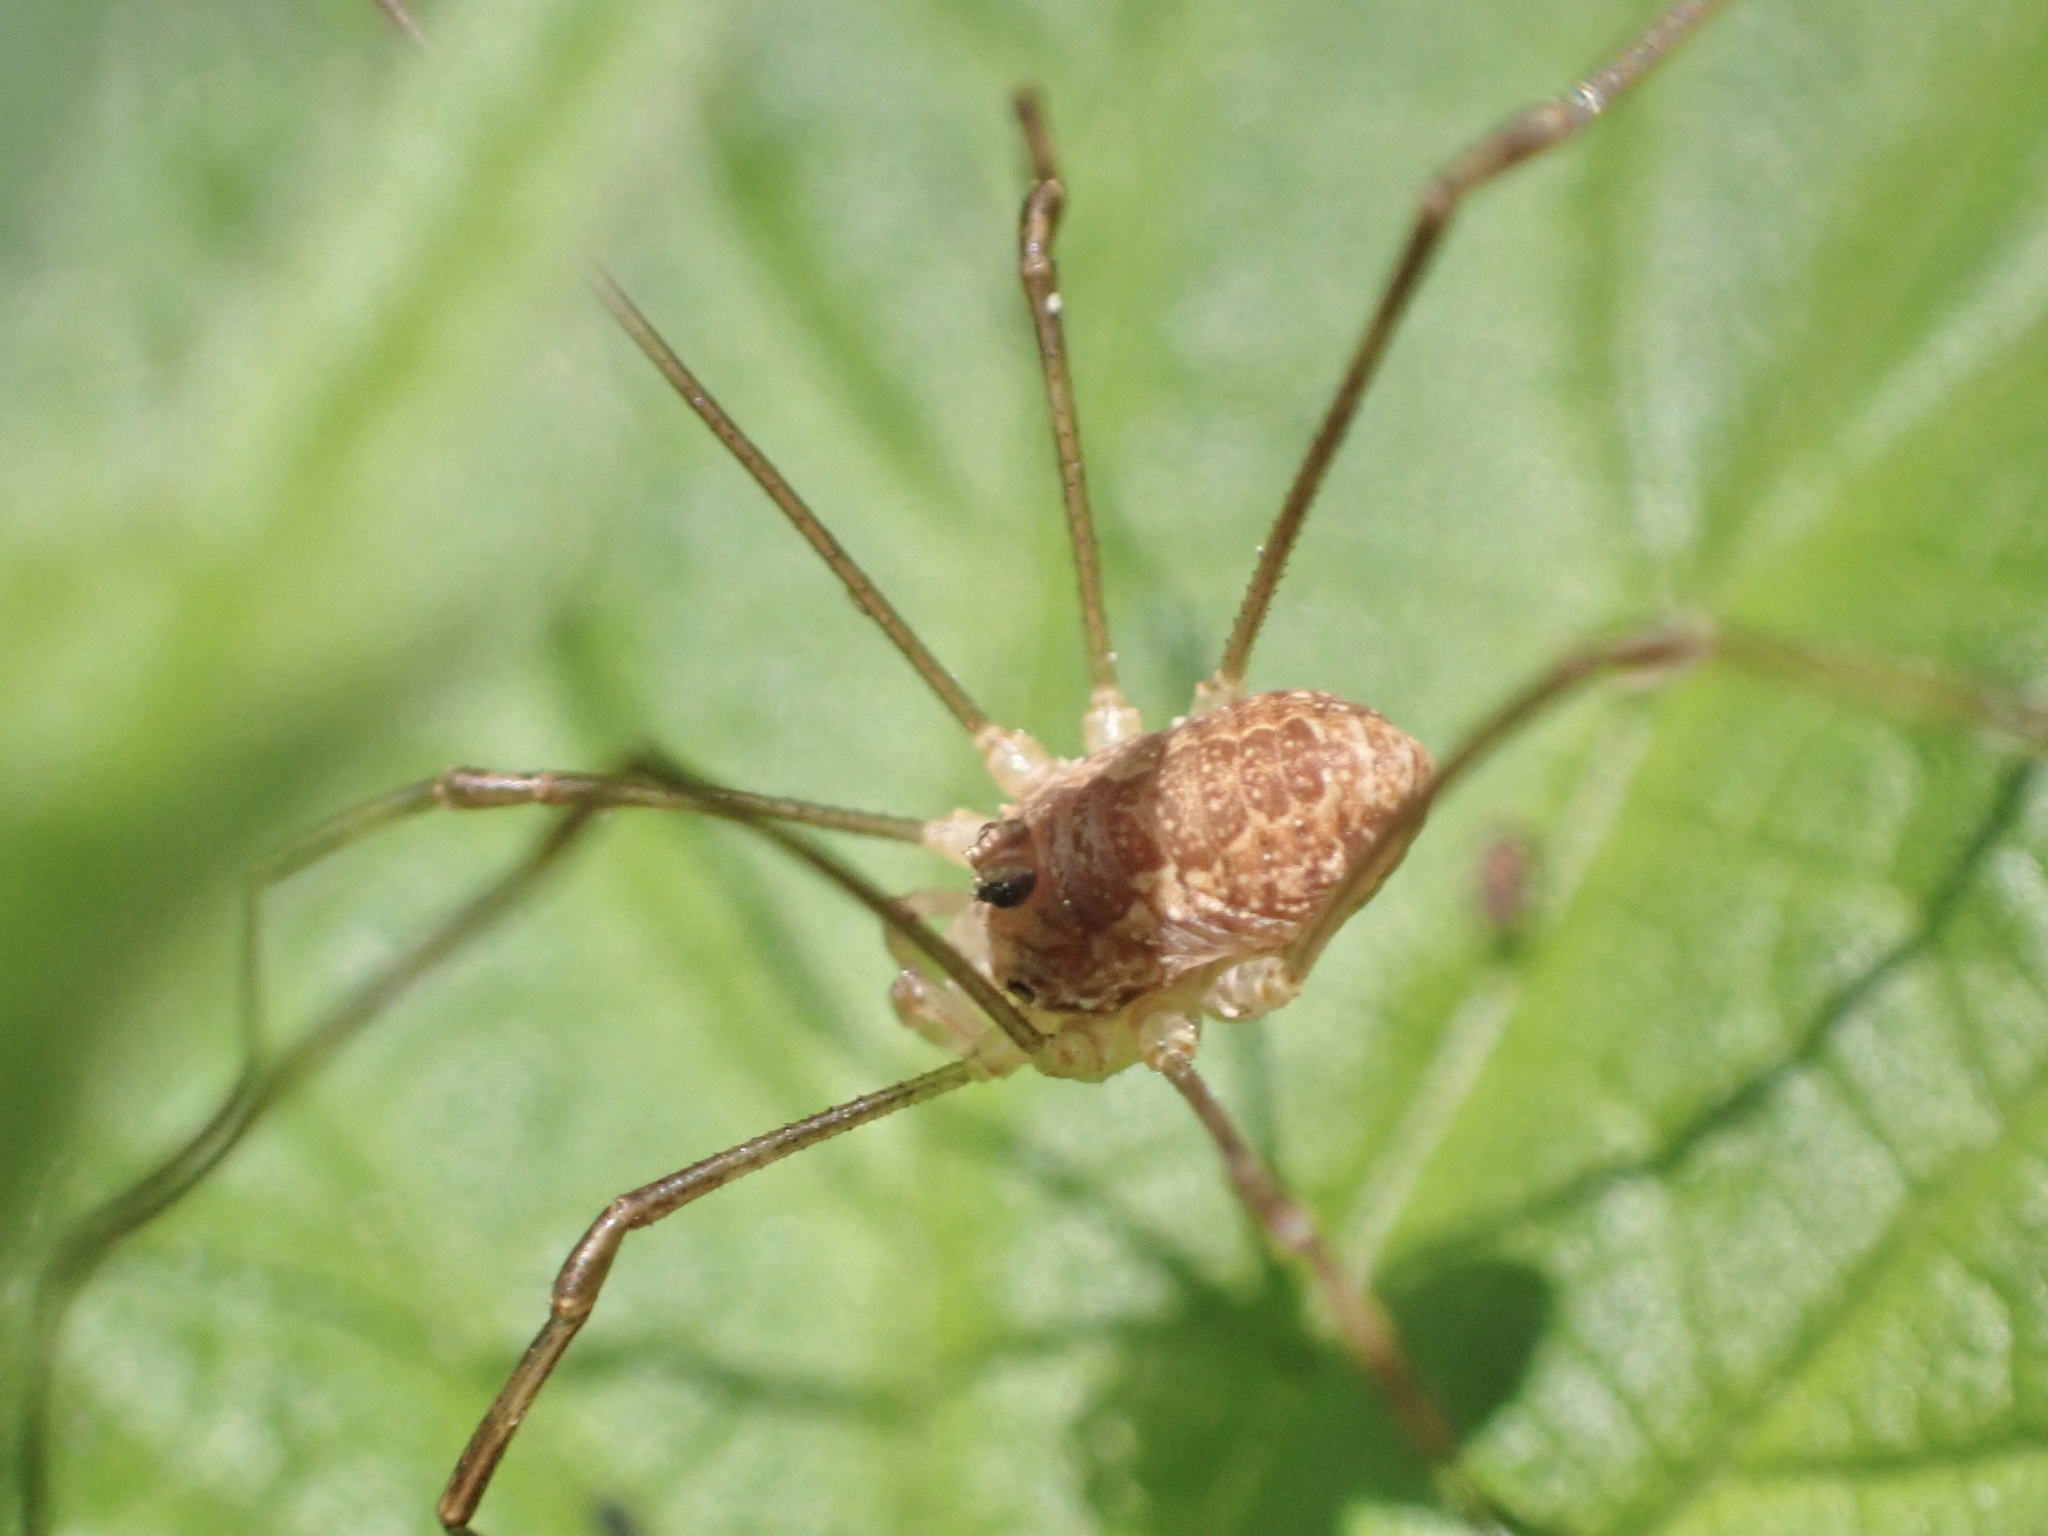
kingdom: Animalia
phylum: Arthropoda
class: Arachnida
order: Opiliones
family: Phalangiidae
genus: Rilaena
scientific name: Rilaena triangularis
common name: Spring harvestman
